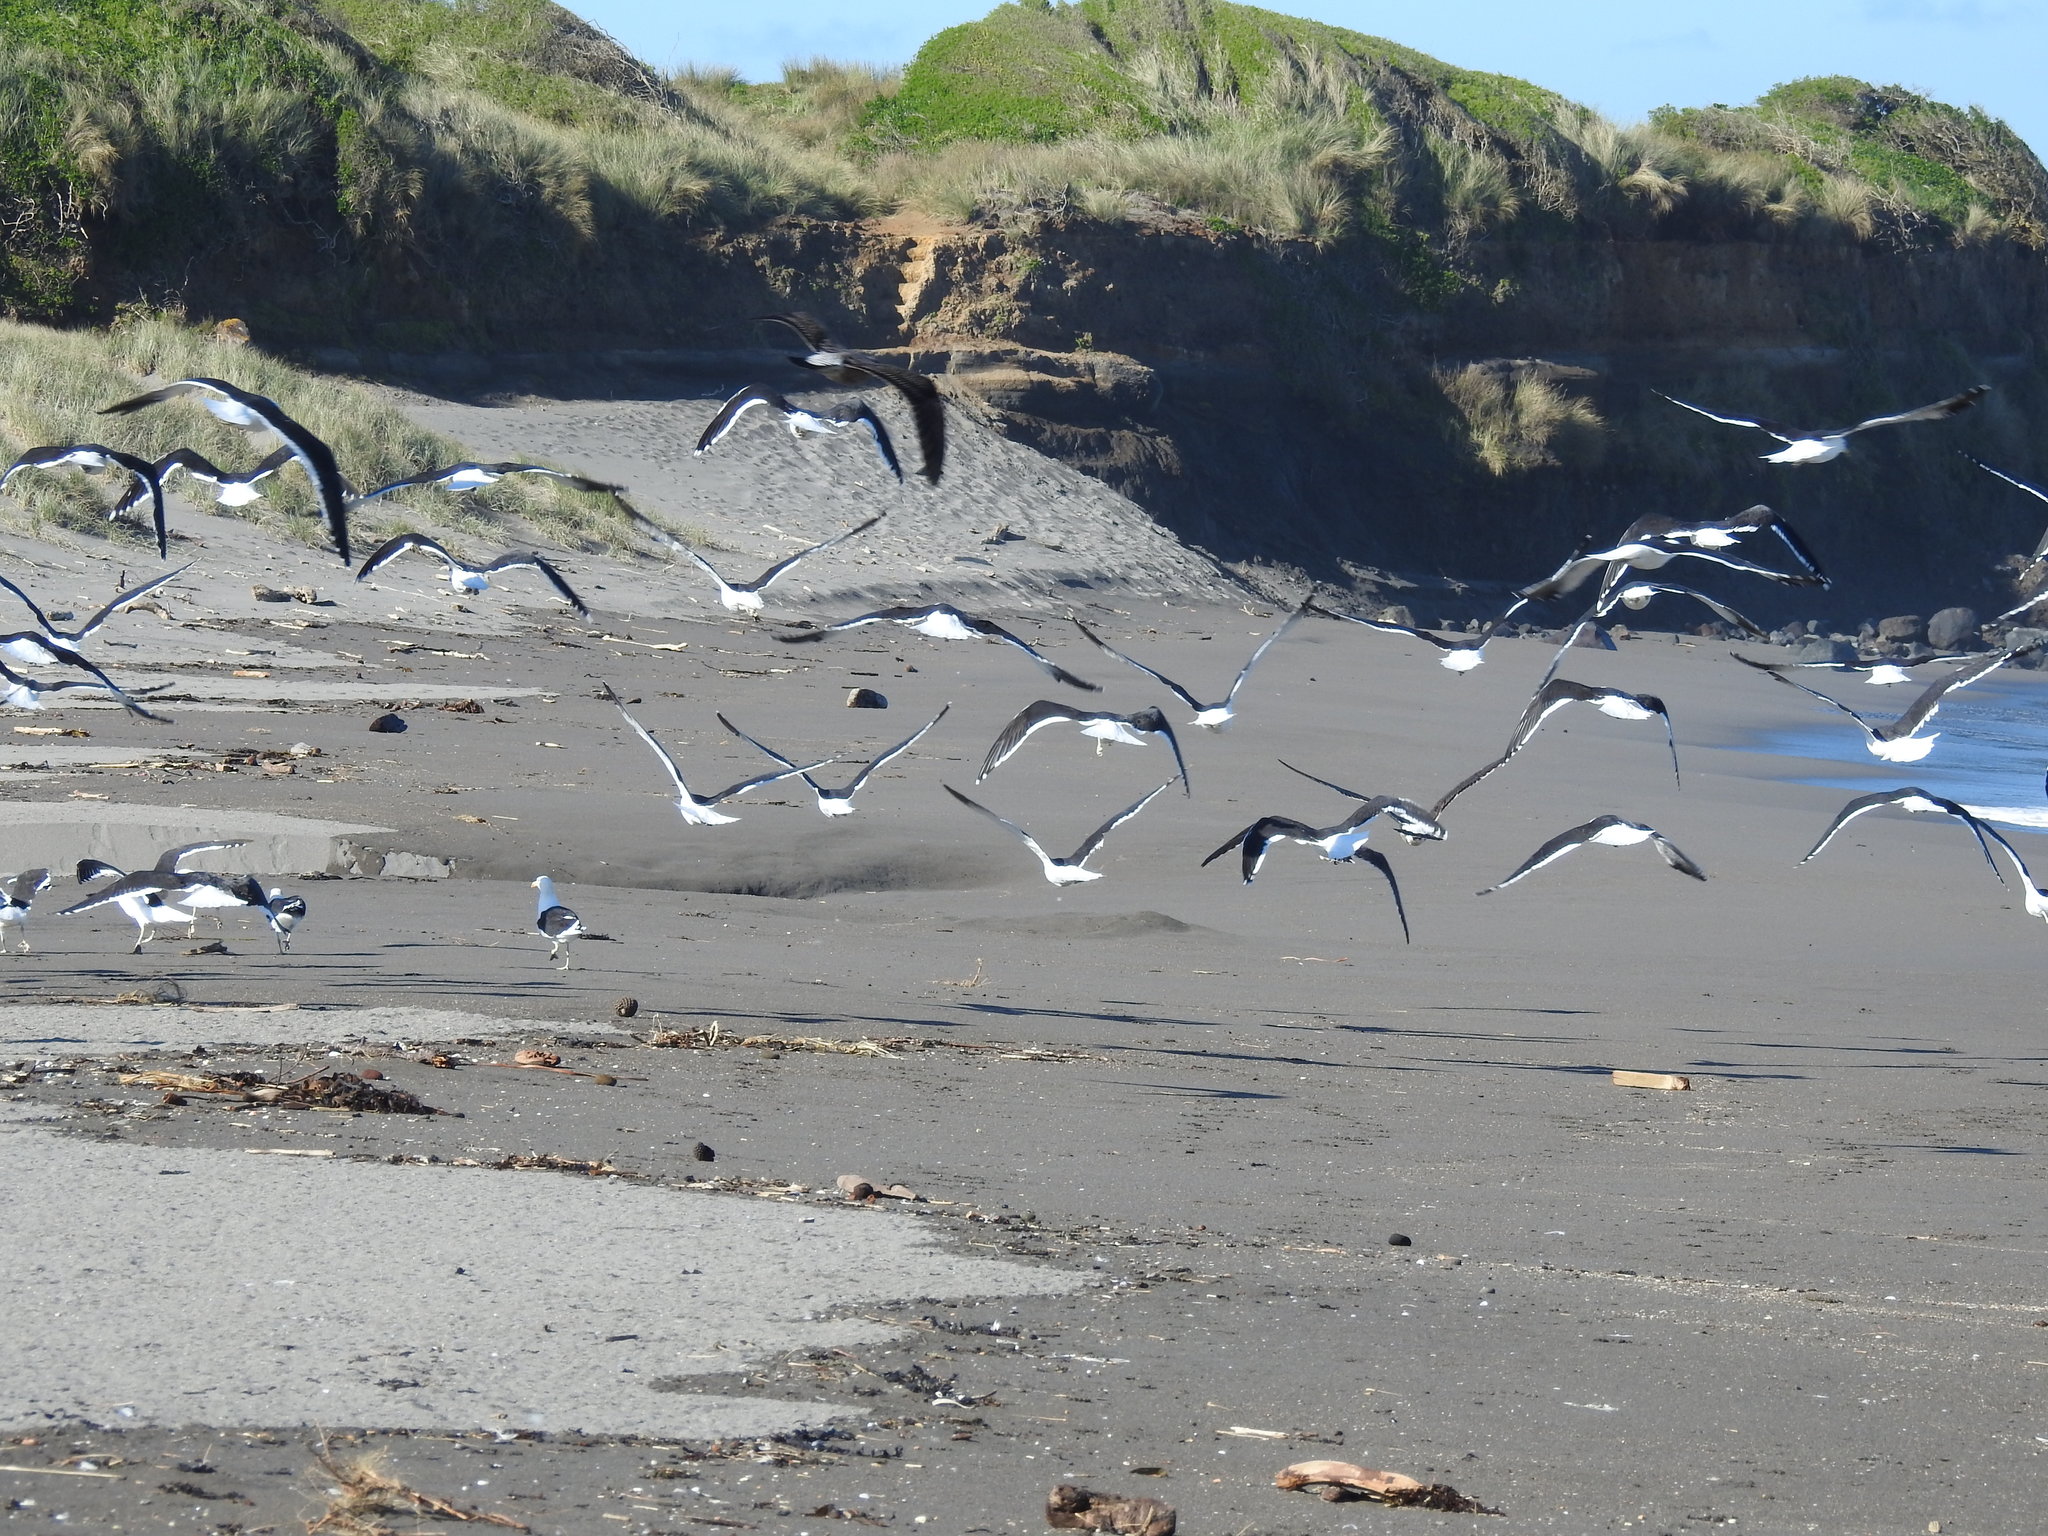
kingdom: Animalia
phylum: Chordata
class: Aves
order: Charadriiformes
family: Laridae
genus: Larus
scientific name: Larus dominicanus
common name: Kelp gull
